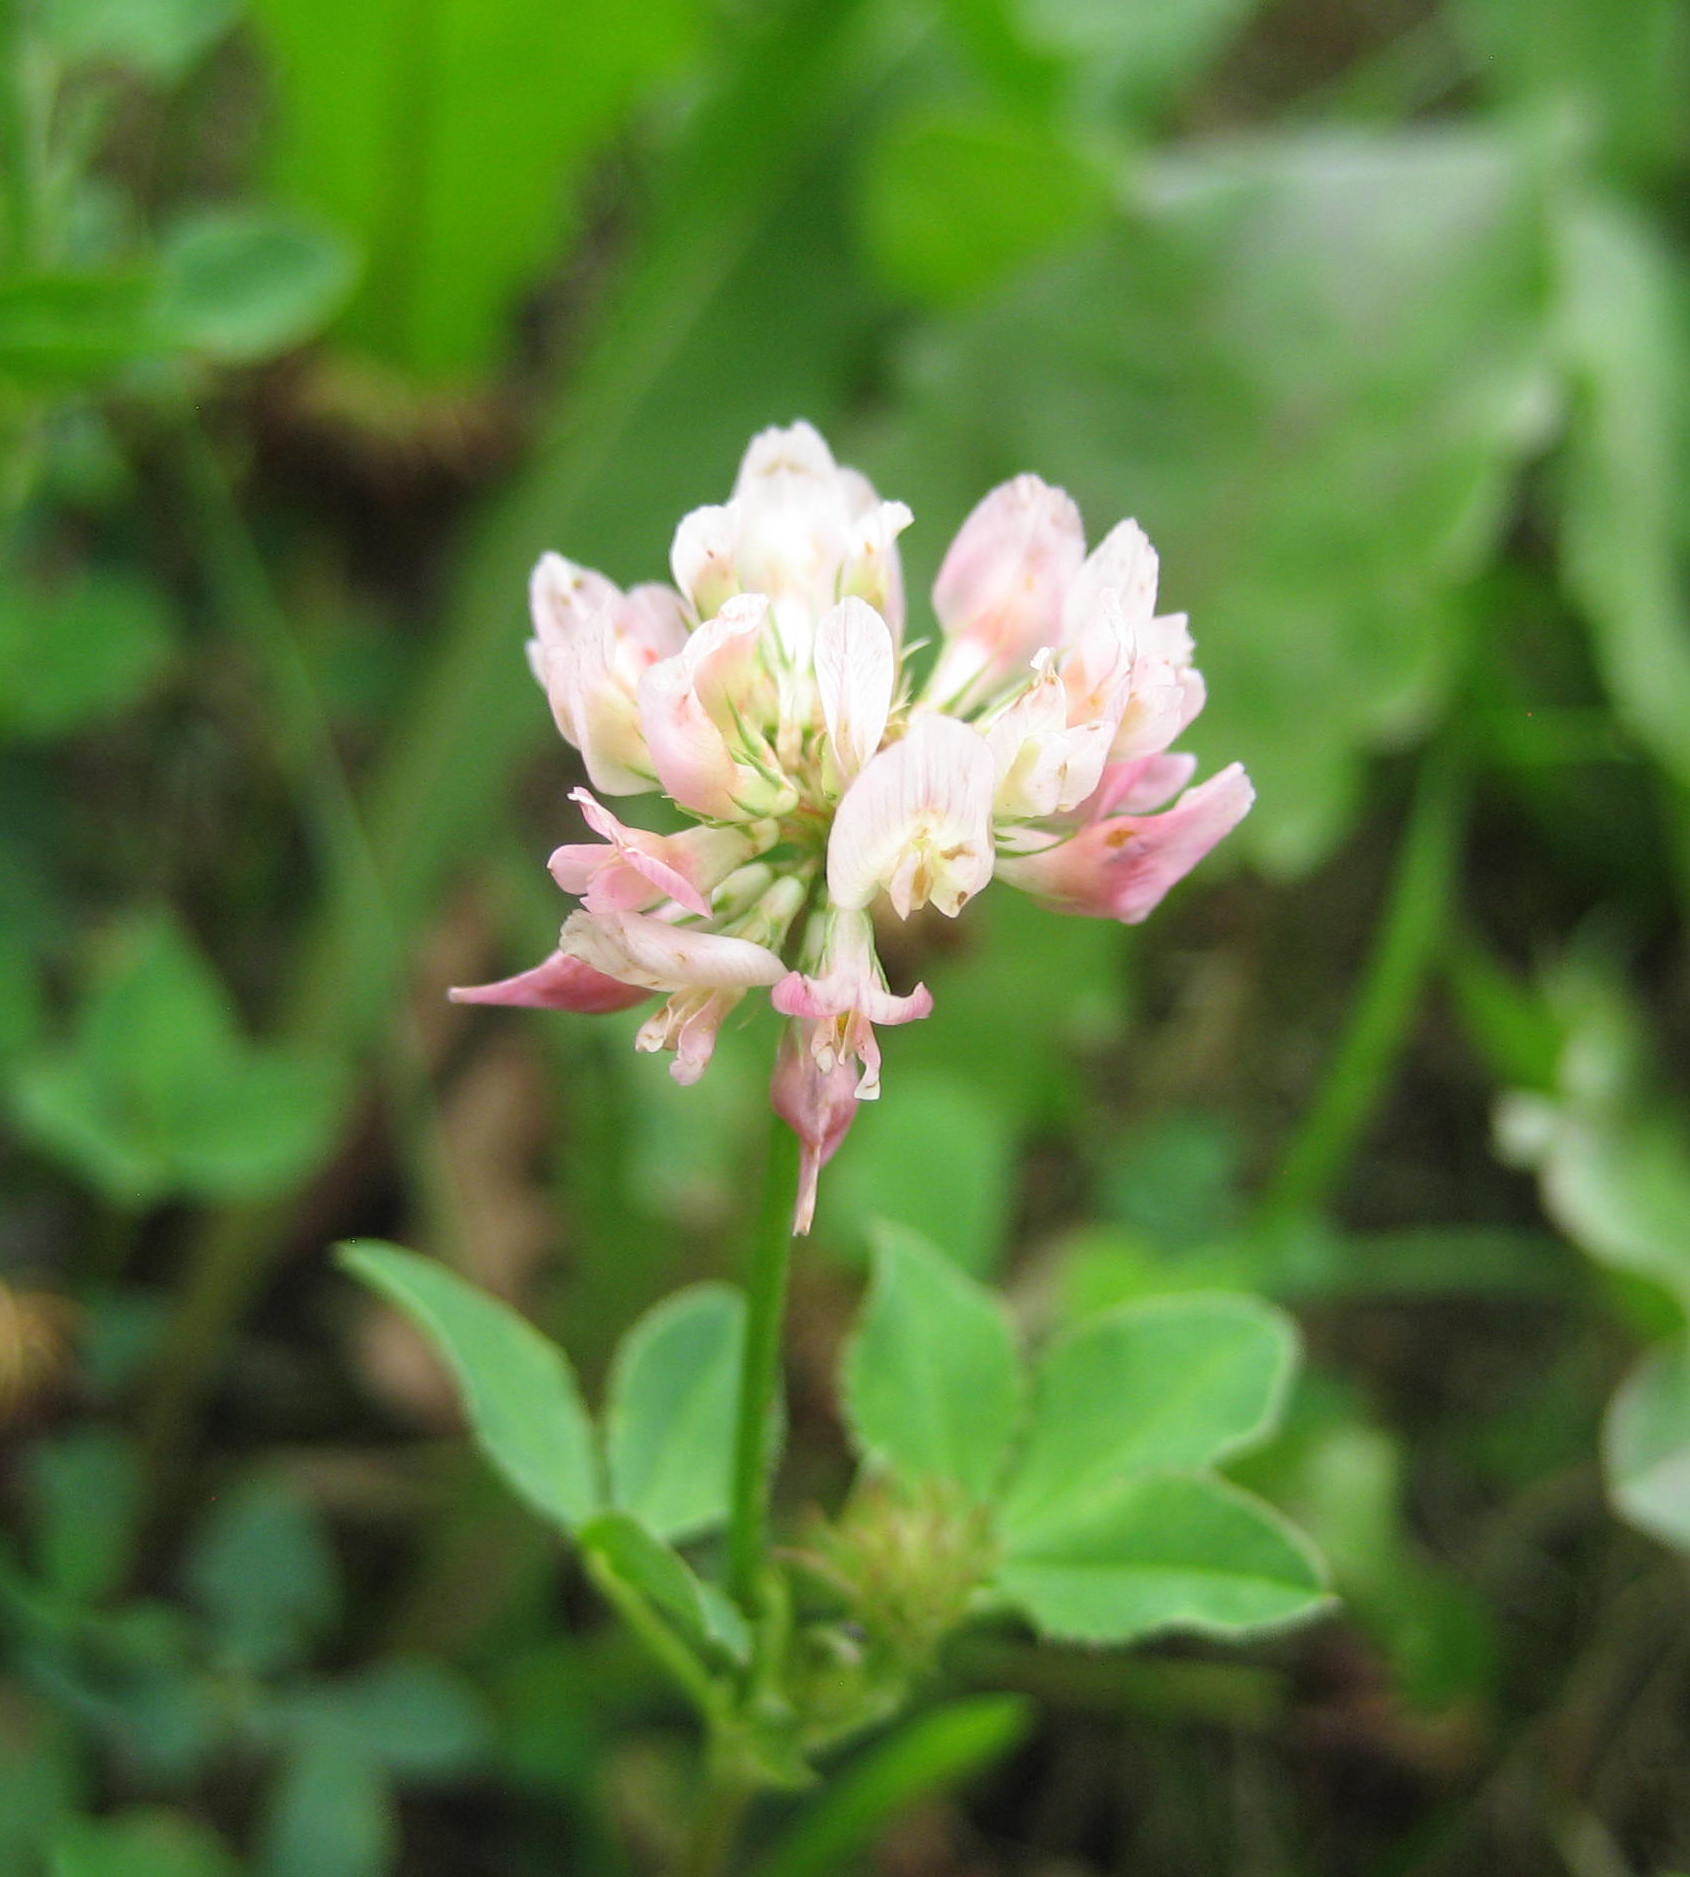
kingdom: Plantae
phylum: Tracheophyta
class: Magnoliopsida
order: Fabales
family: Fabaceae
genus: Trifolium
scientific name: Trifolium hybridum
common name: Alsike clover
